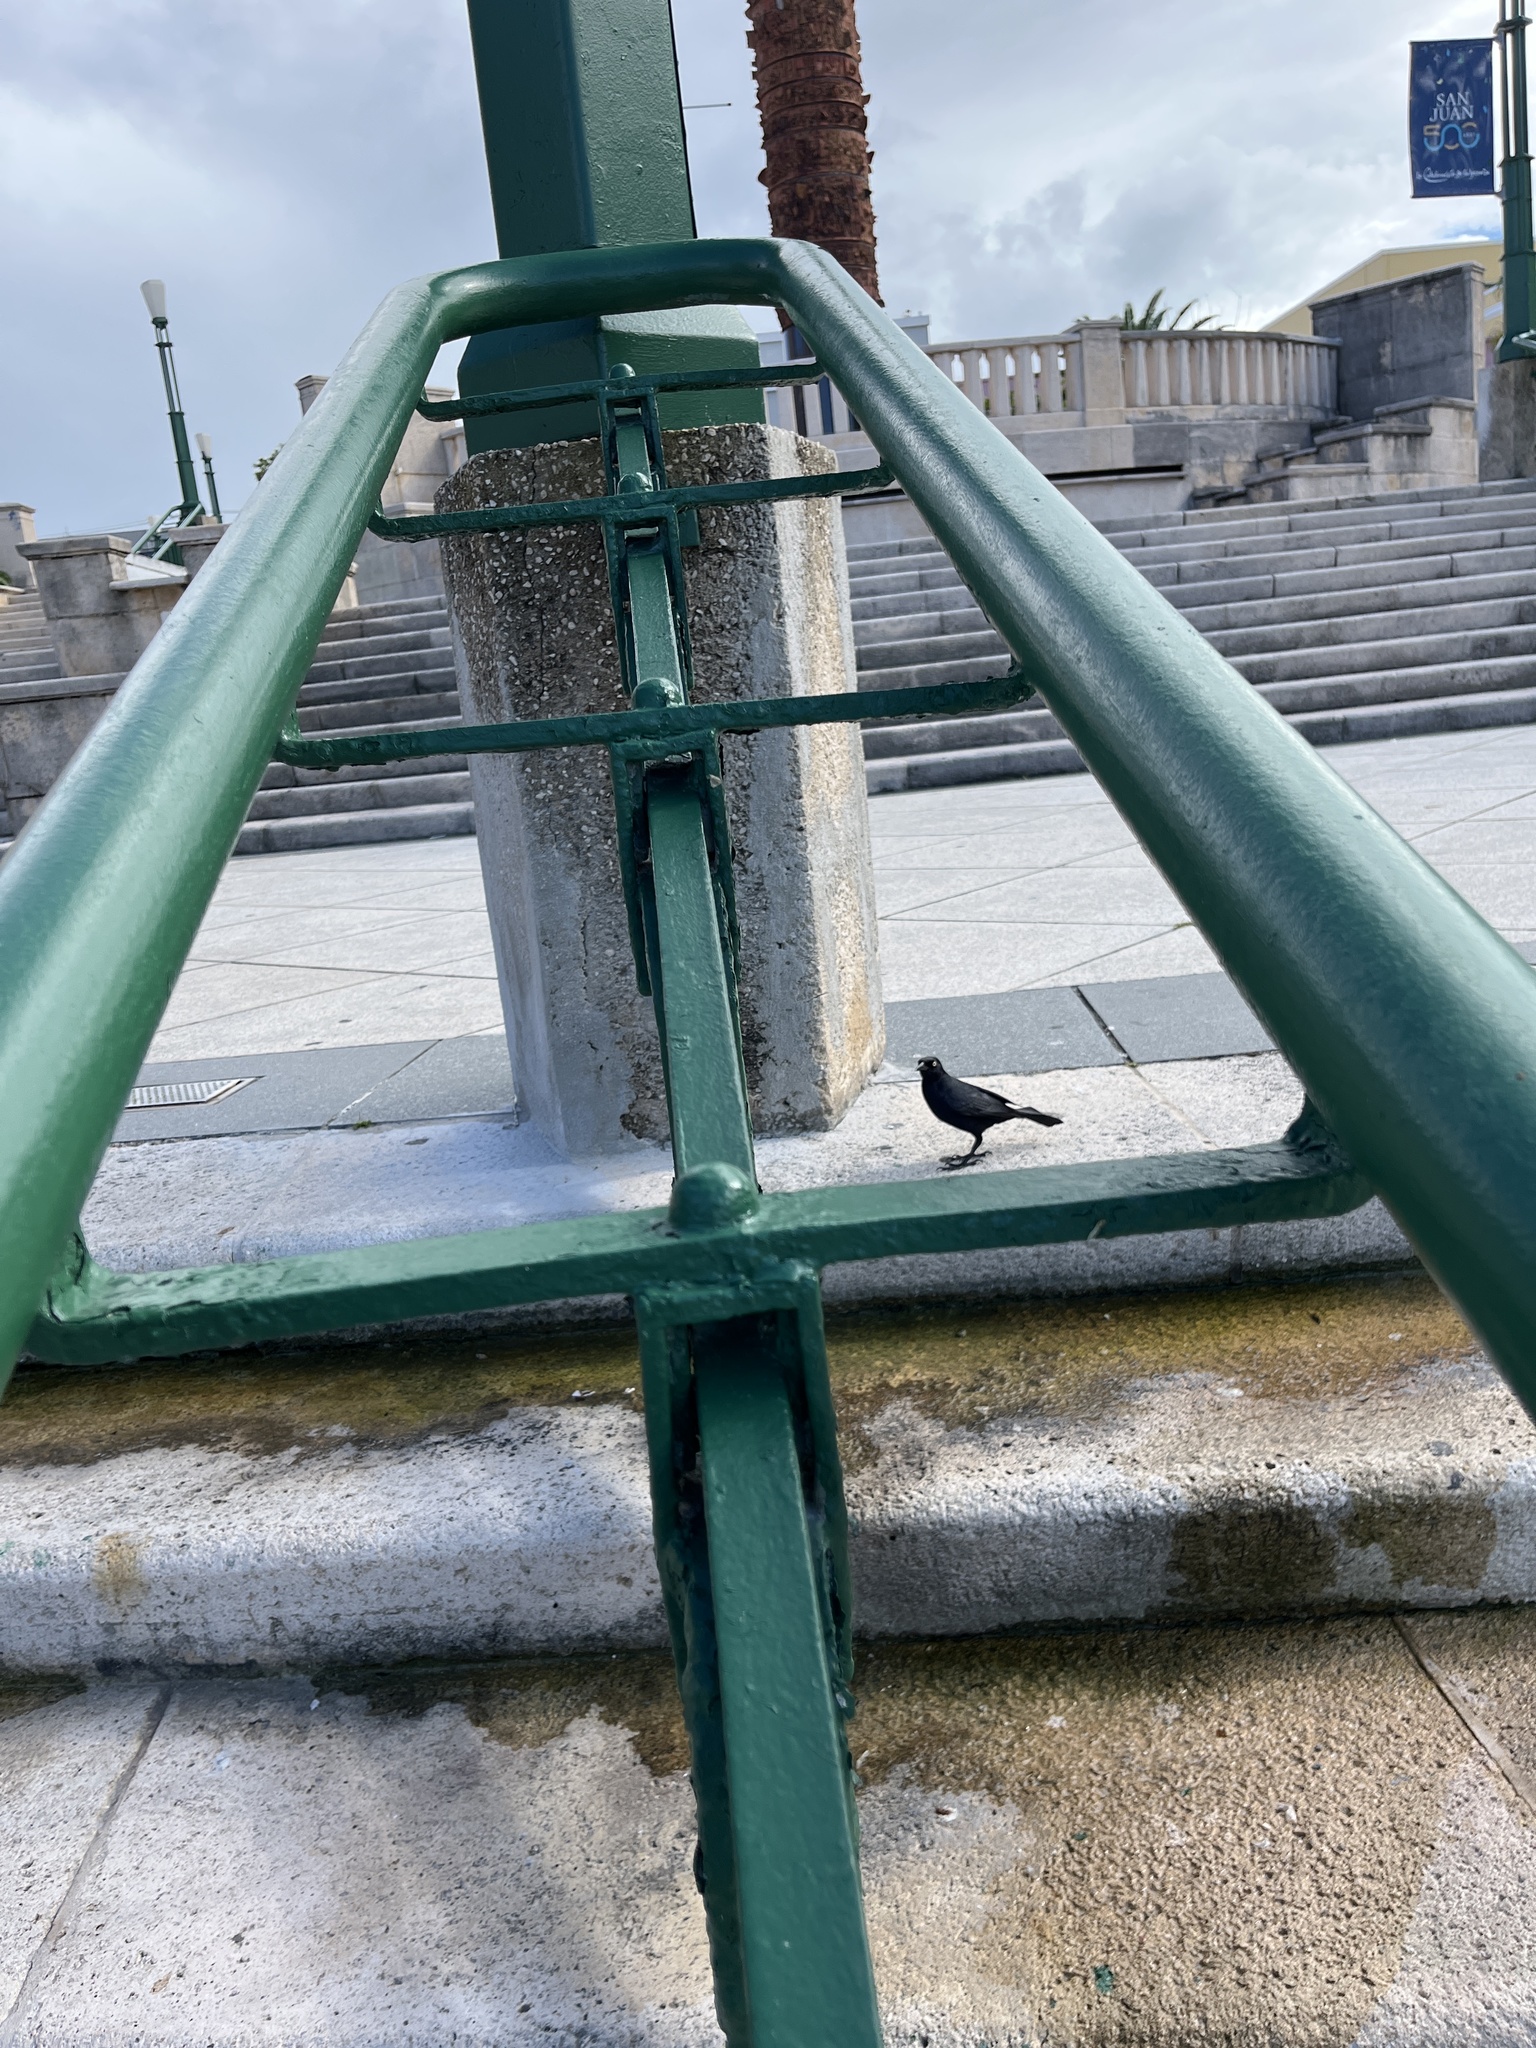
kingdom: Animalia
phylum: Chordata
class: Aves
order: Passeriformes
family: Icteridae
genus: Quiscalus
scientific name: Quiscalus niger
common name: Greater antillean grackle
